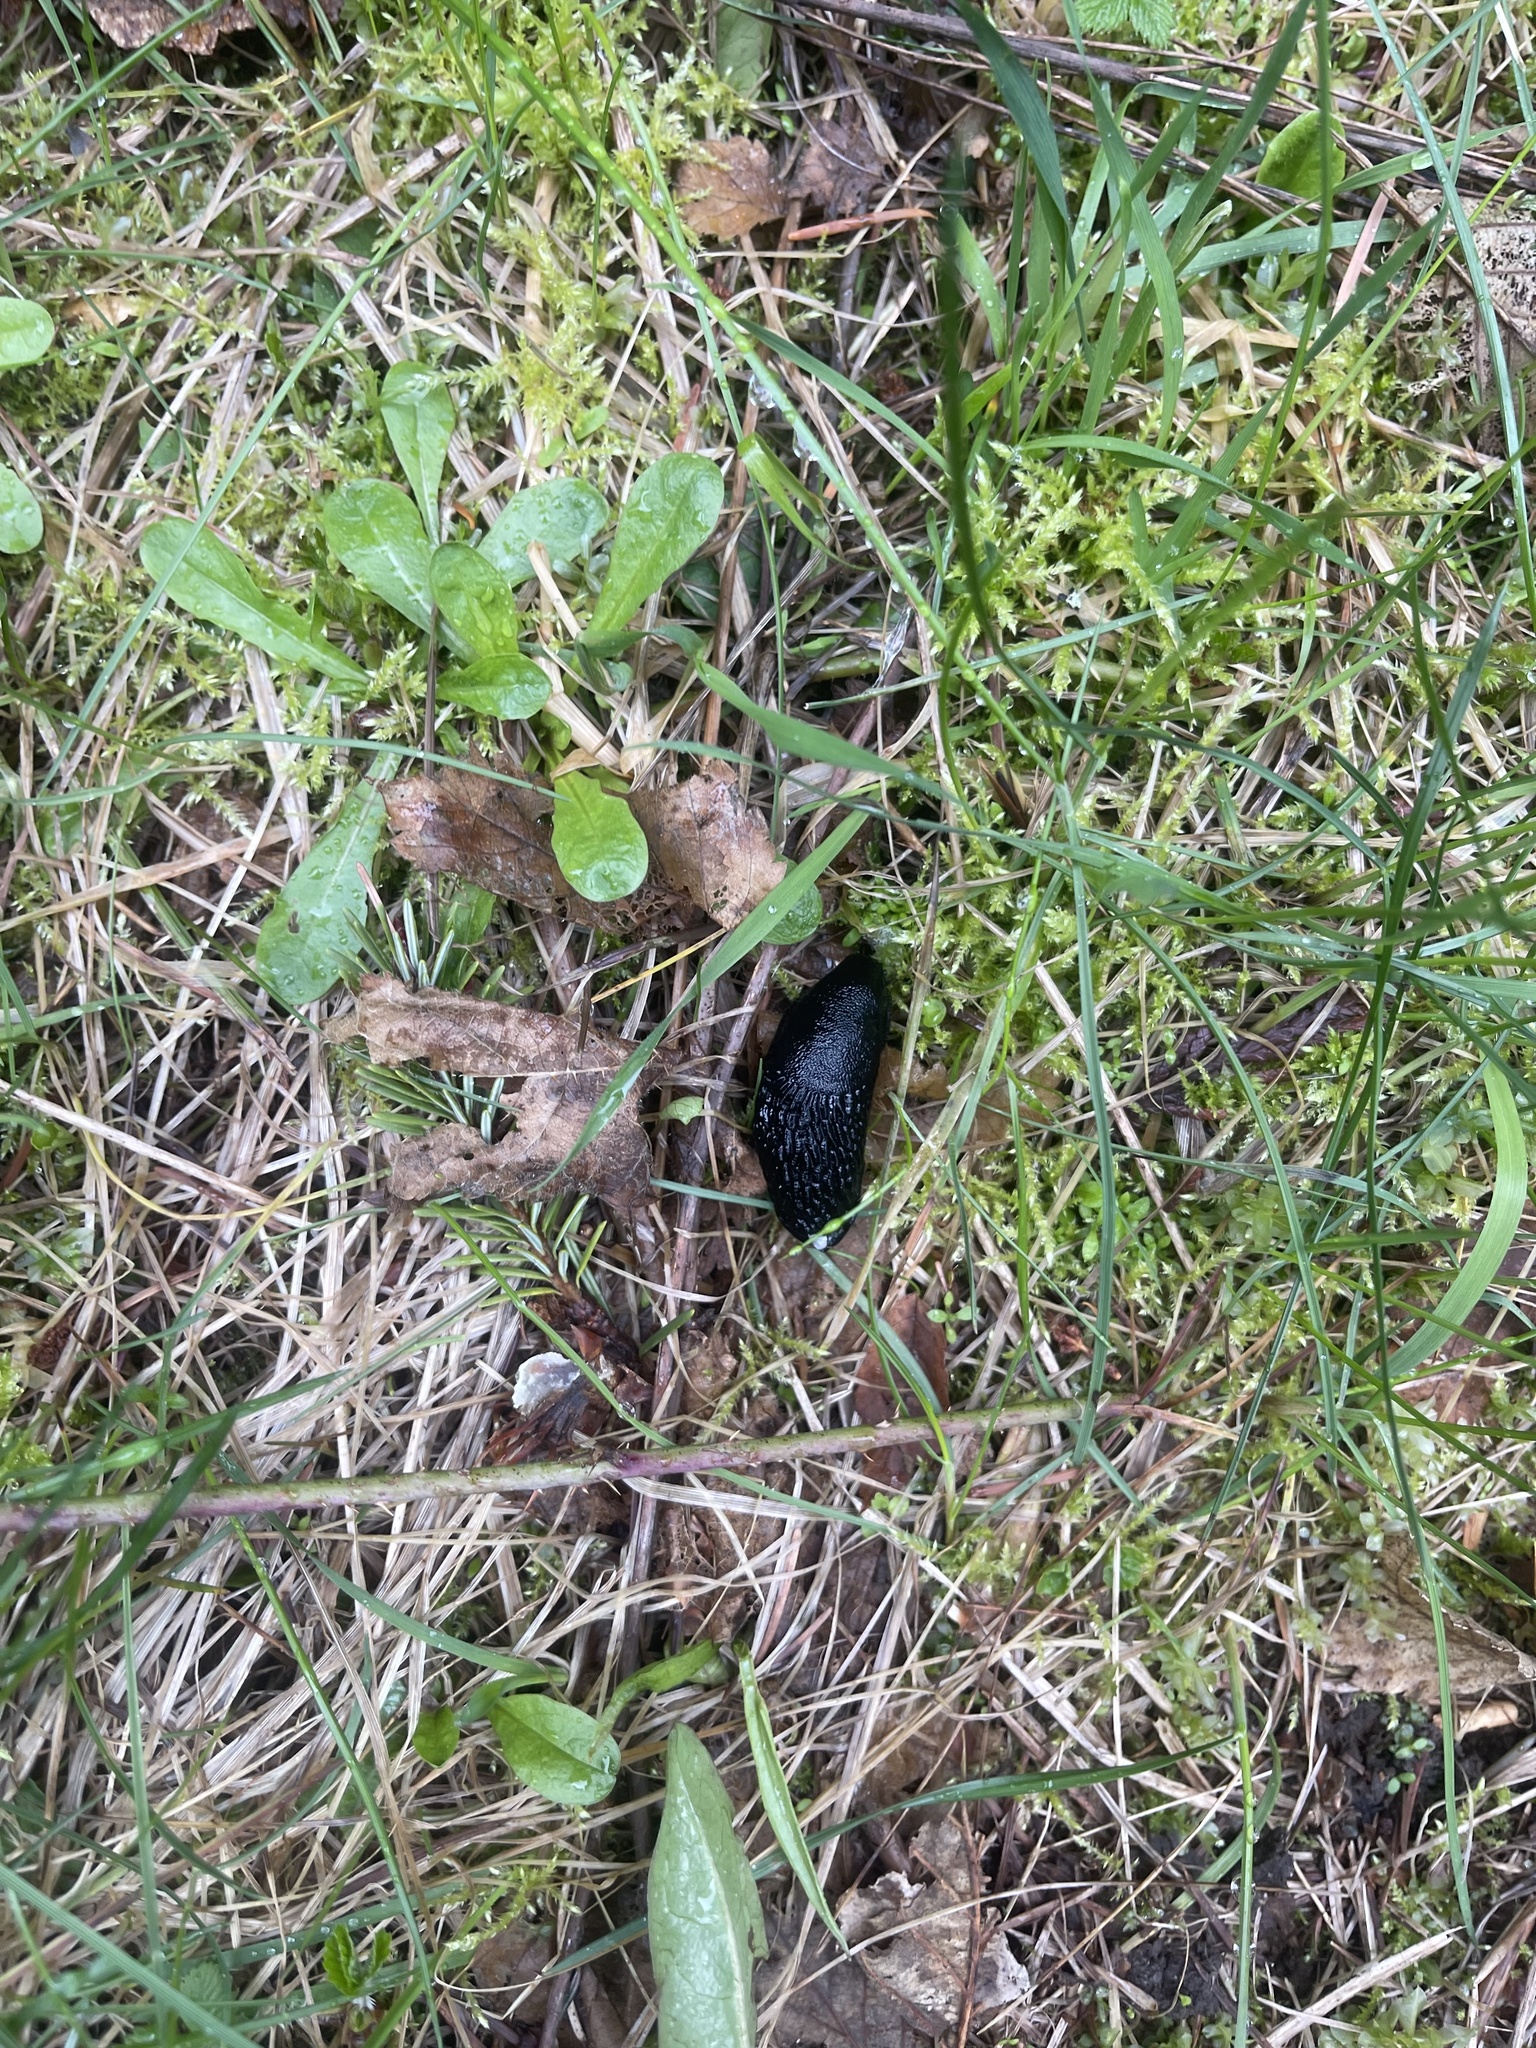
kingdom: Animalia
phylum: Mollusca
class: Gastropoda
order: Stylommatophora
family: Arionidae
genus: Arion
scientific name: Arion
